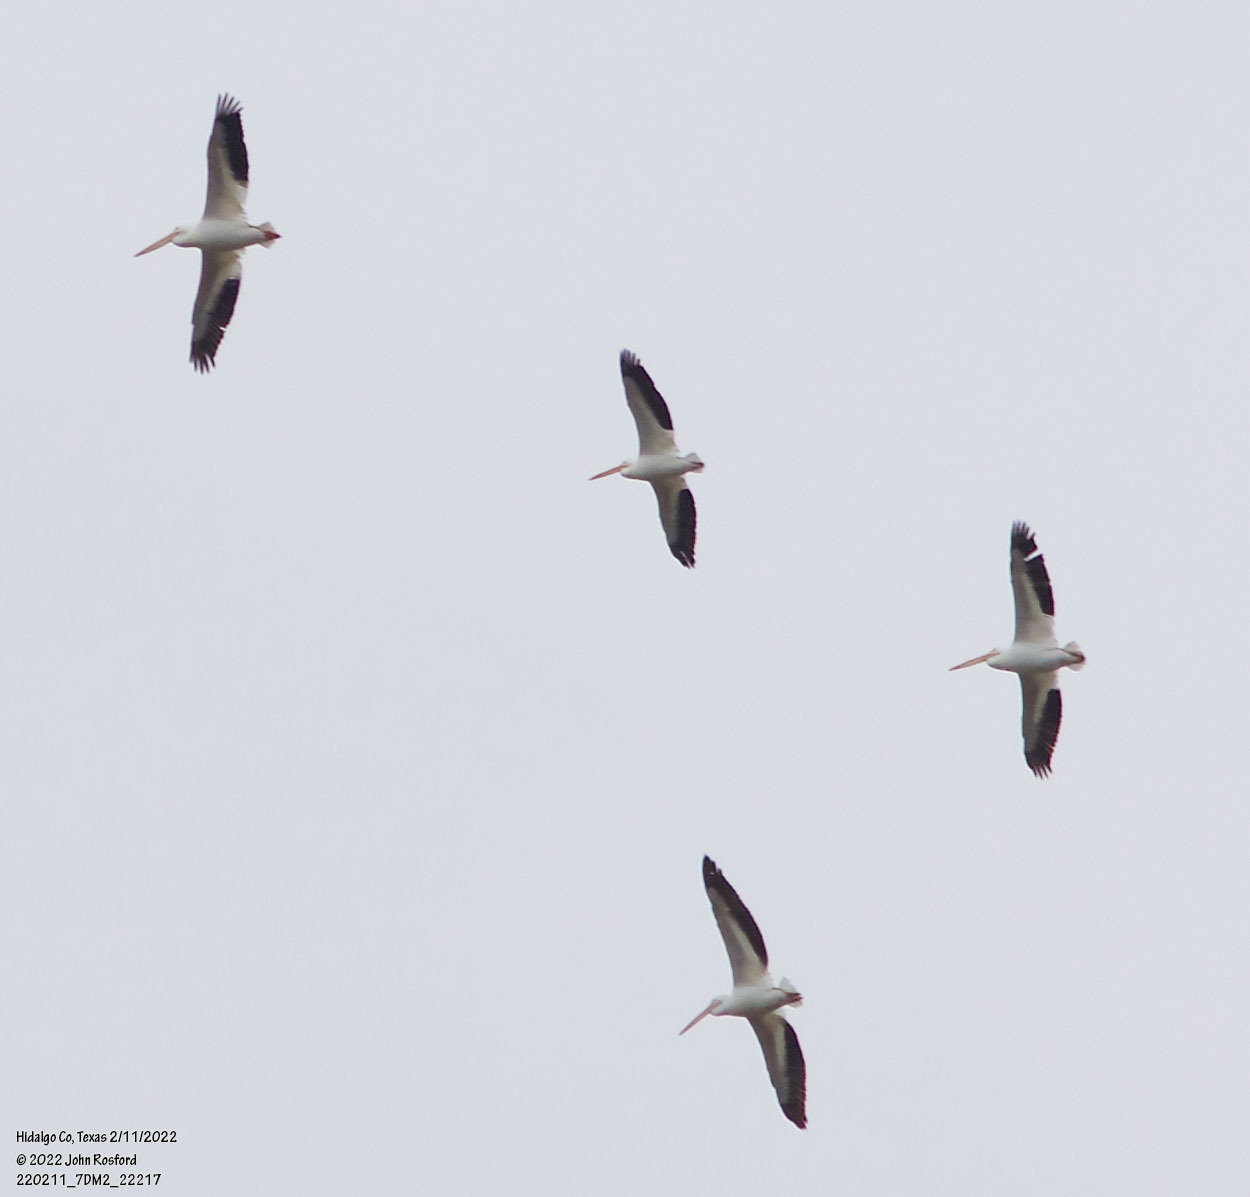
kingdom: Animalia
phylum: Chordata
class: Aves
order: Pelecaniformes
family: Pelecanidae
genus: Pelecanus
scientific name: Pelecanus erythrorhynchos
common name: American white pelican
